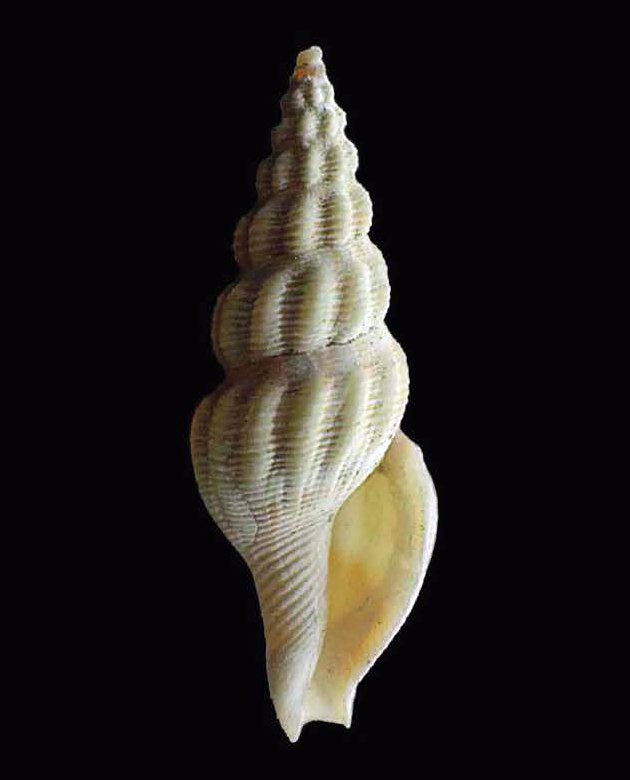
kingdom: Animalia
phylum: Mollusca
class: Gastropoda
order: Neogastropoda
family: Clathurellidae
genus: Pleurotomoides
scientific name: Pleurotomoides gracilis
